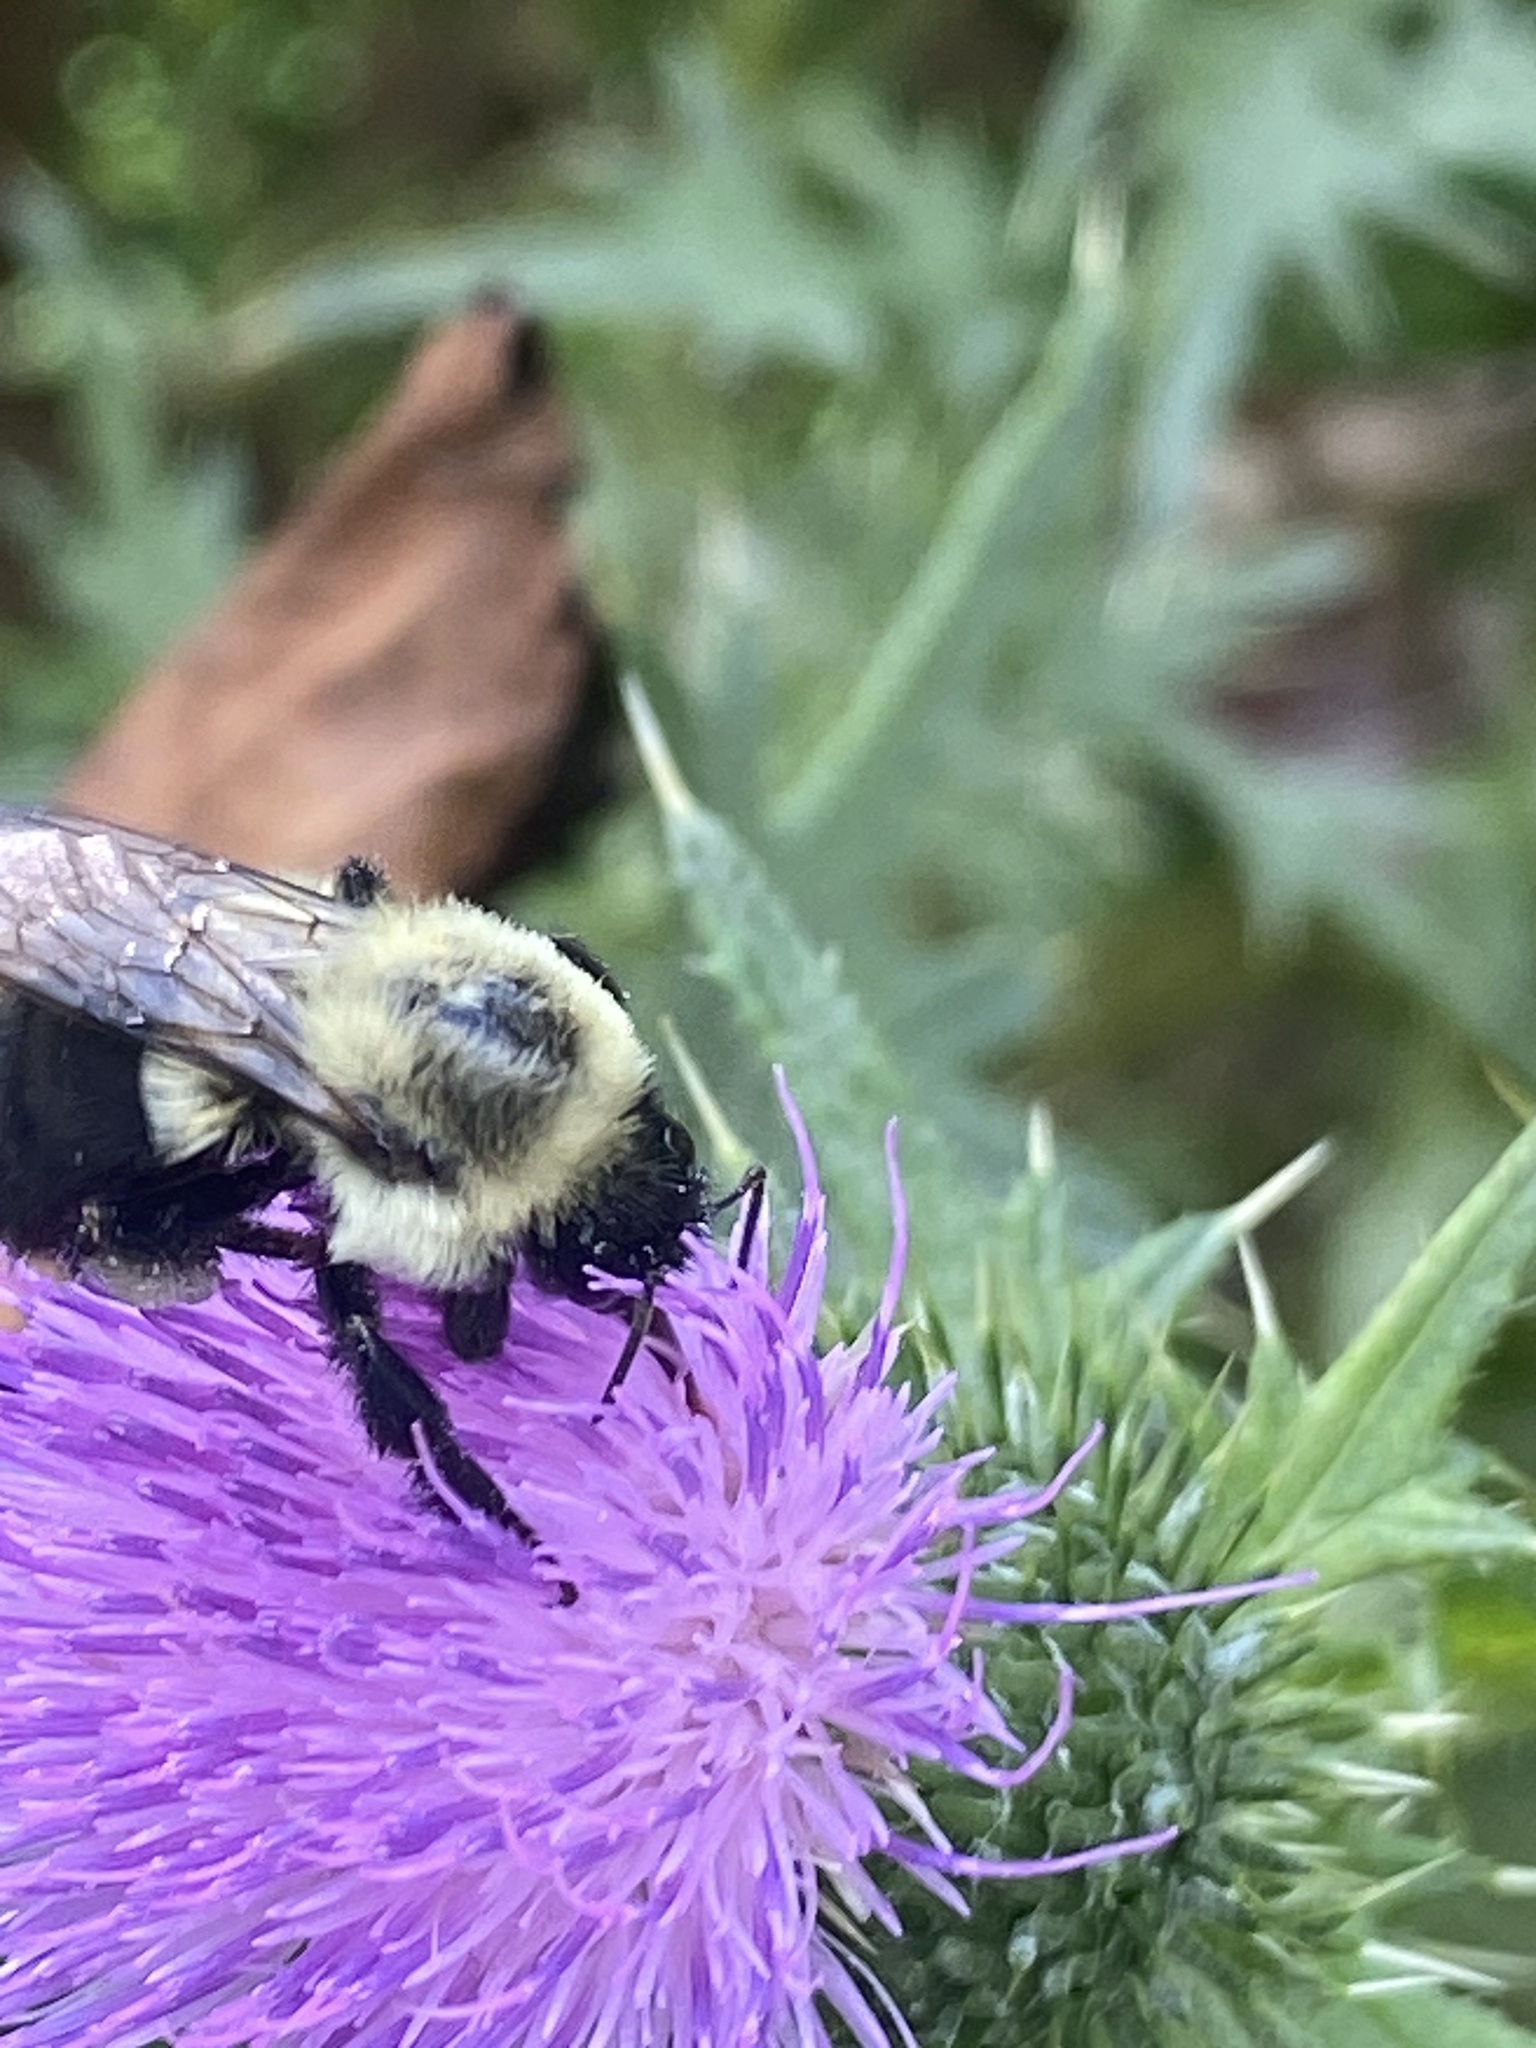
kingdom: Animalia
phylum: Arthropoda
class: Insecta
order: Hymenoptera
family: Apidae
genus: Bombus
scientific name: Bombus impatiens
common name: Common eastern bumble bee
